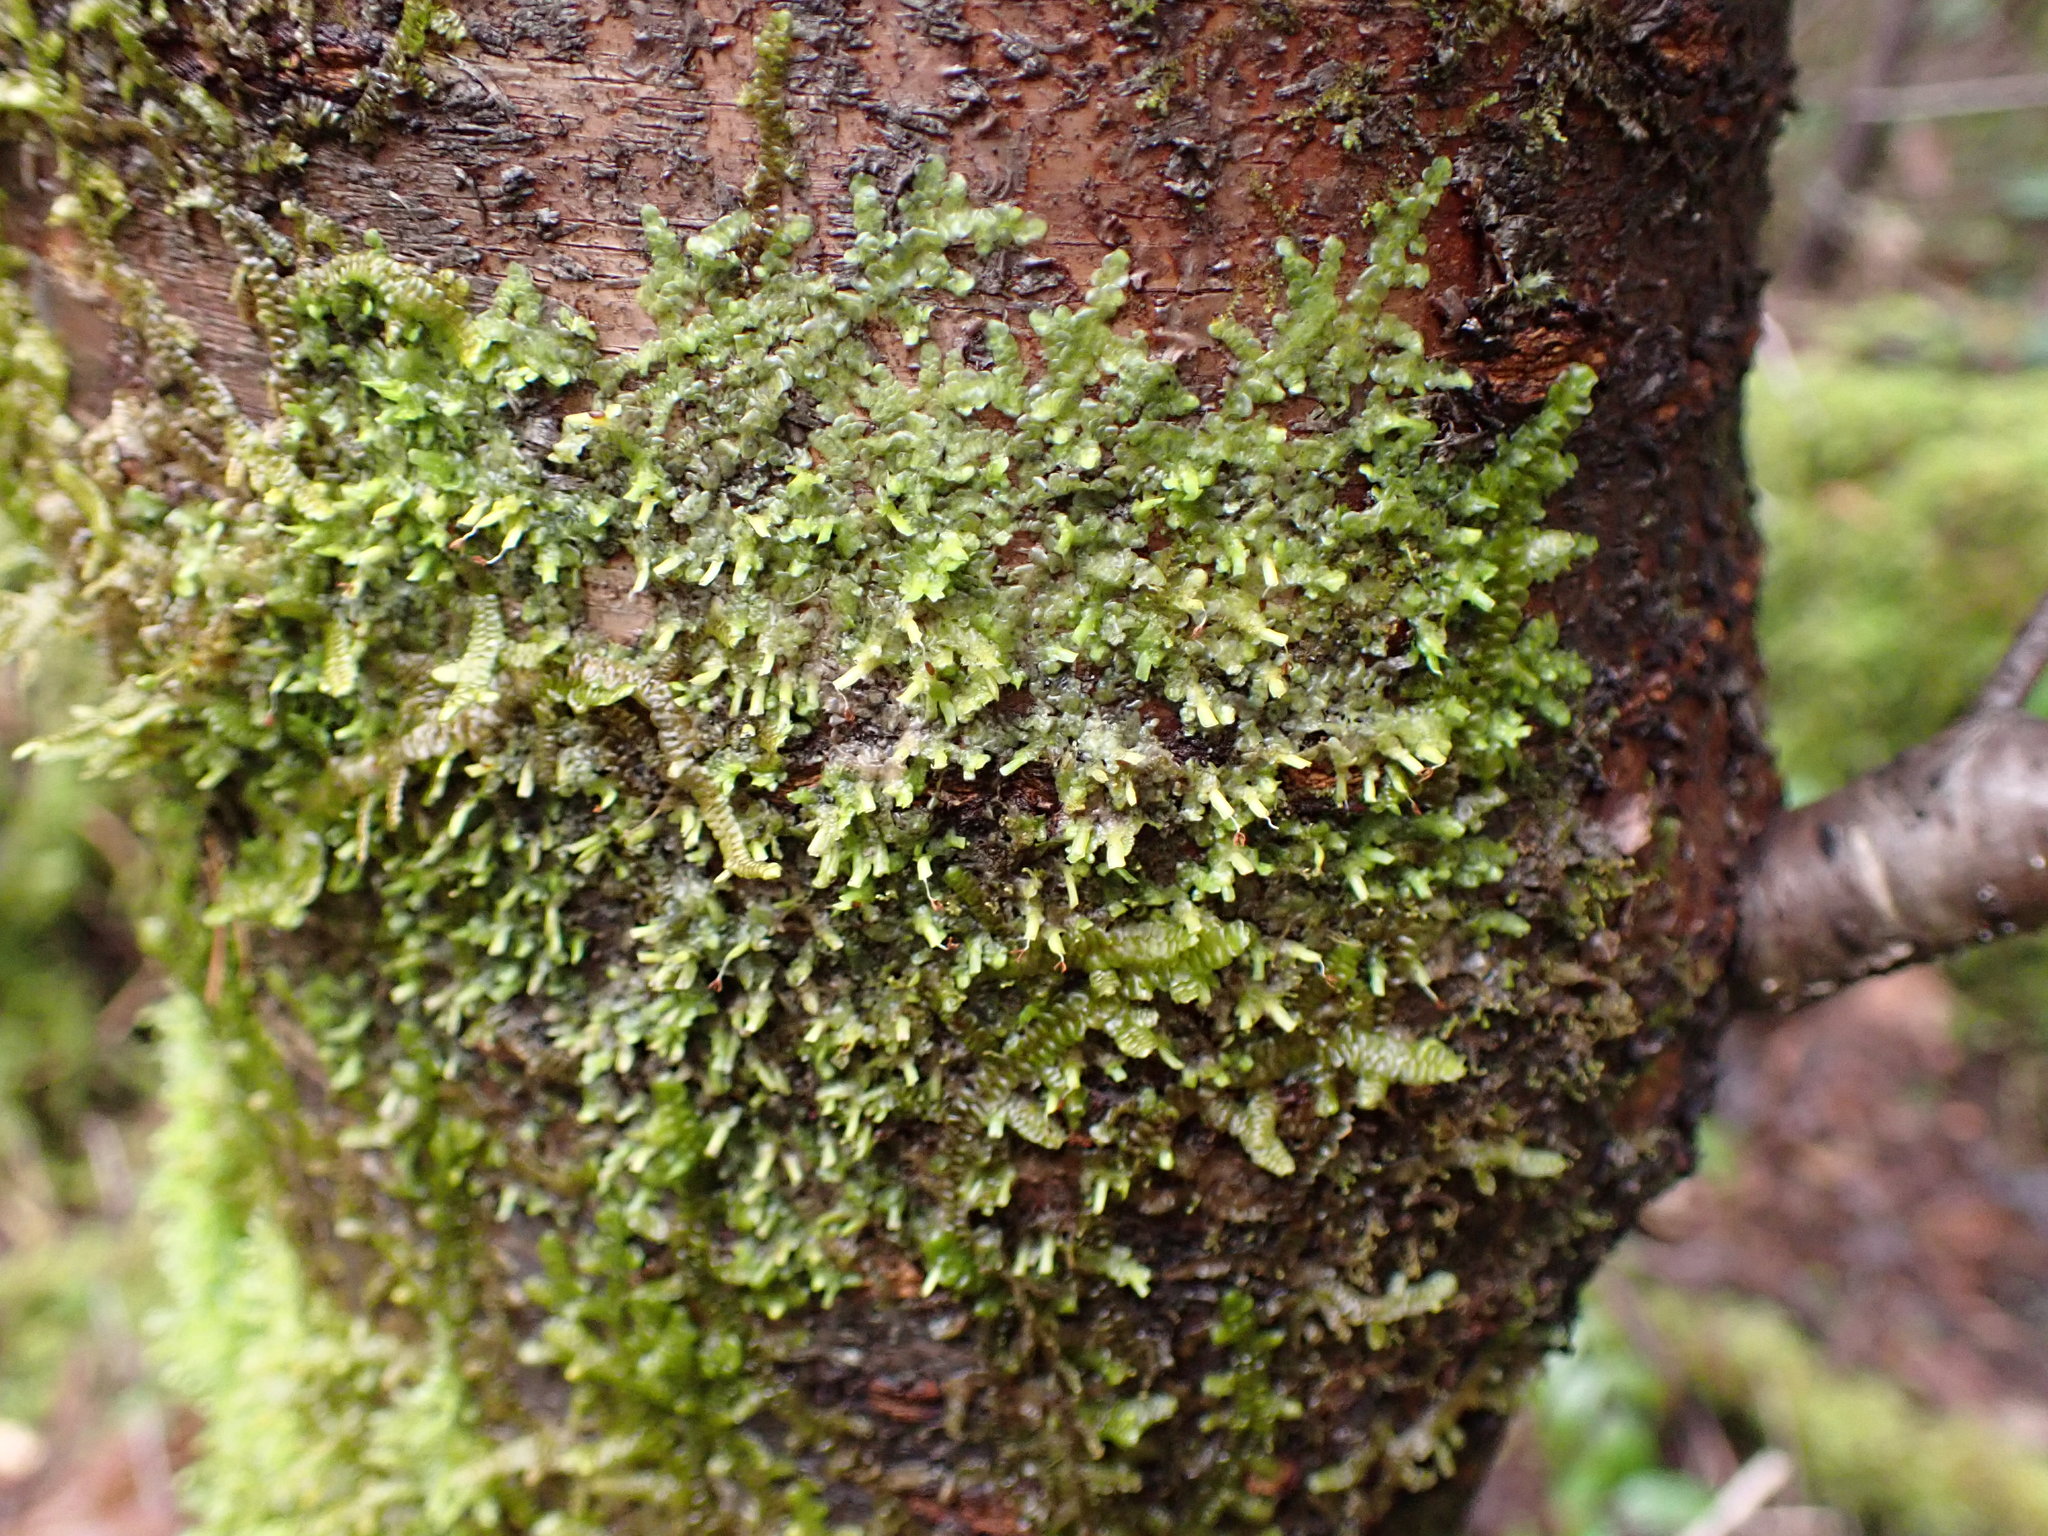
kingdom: Plantae
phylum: Marchantiophyta
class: Jungermanniopsida
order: Porellales
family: Radulaceae
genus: Radula
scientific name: Radula complanata
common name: Flat-leaved scalewort
